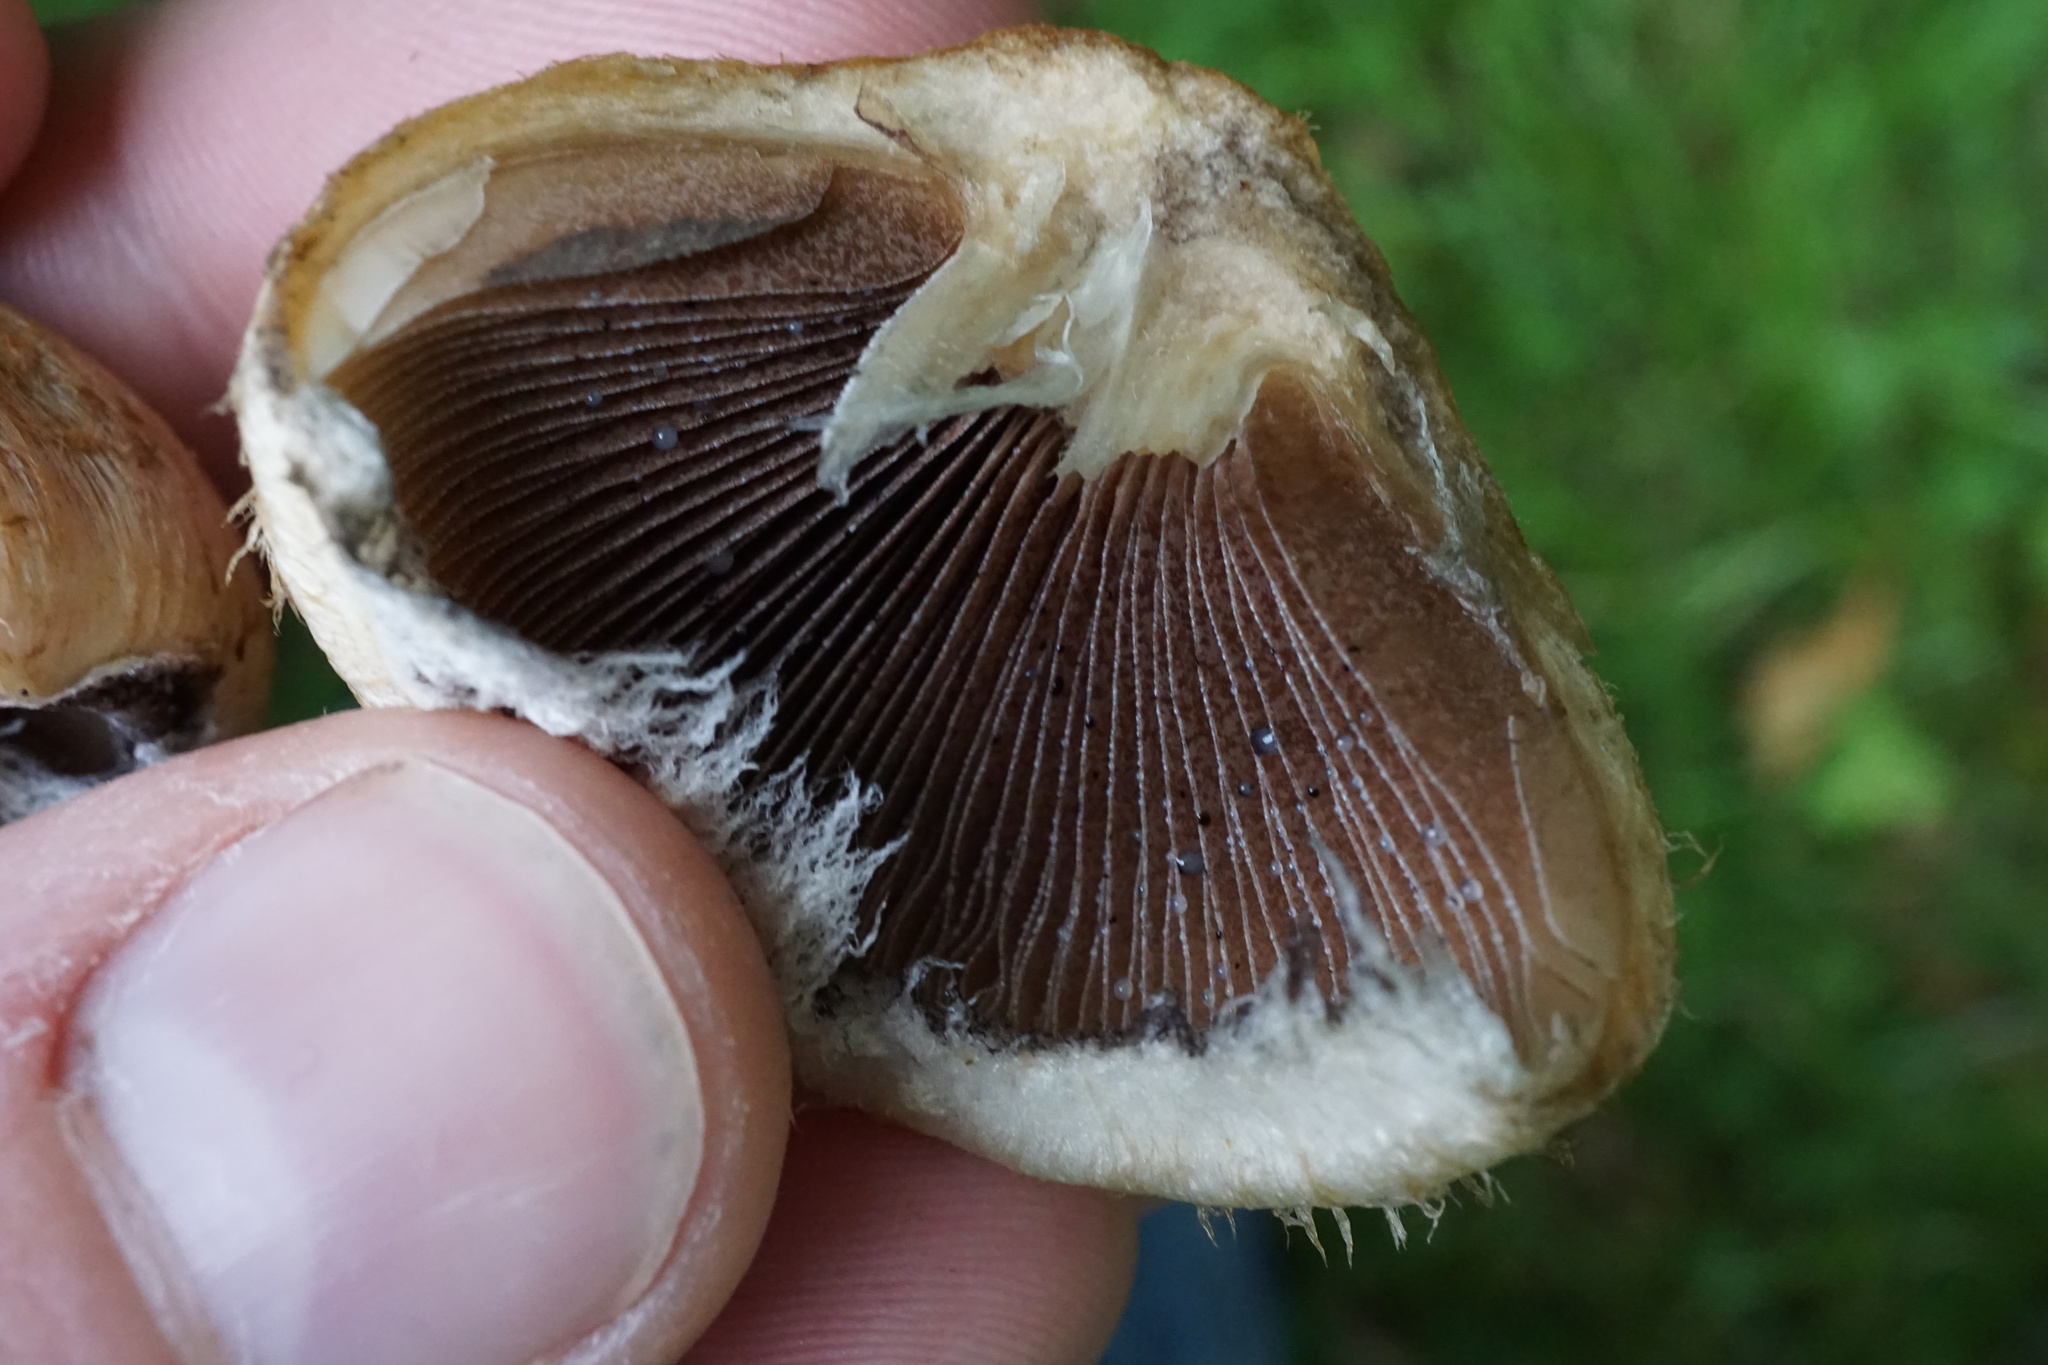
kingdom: Fungi
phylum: Basidiomycota
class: Agaricomycetes
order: Agaricales
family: Psathyrellaceae
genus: Lacrymaria
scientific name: Lacrymaria lacrymabunda
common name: Weeping widow
